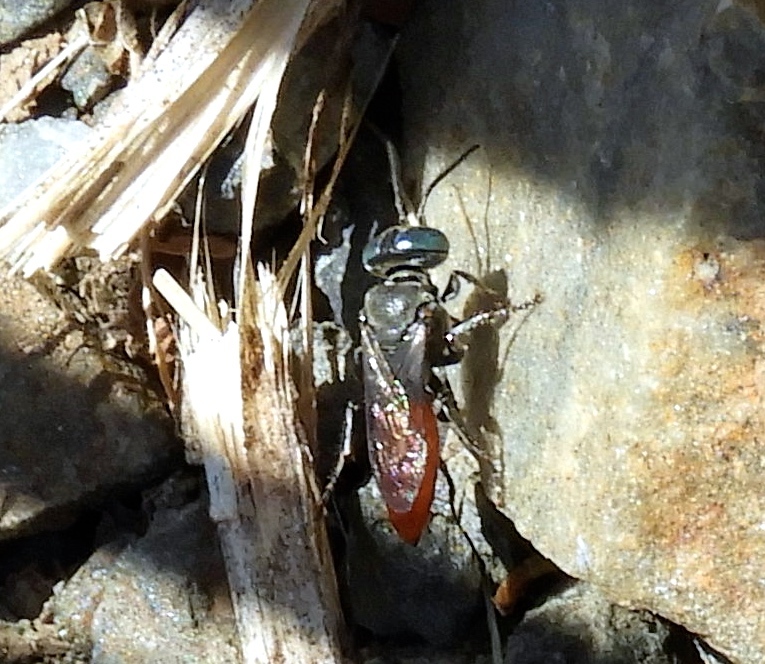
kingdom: Animalia
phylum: Arthropoda
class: Insecta
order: Hymenoptera
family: Crabronidae
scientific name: Crabronidae
